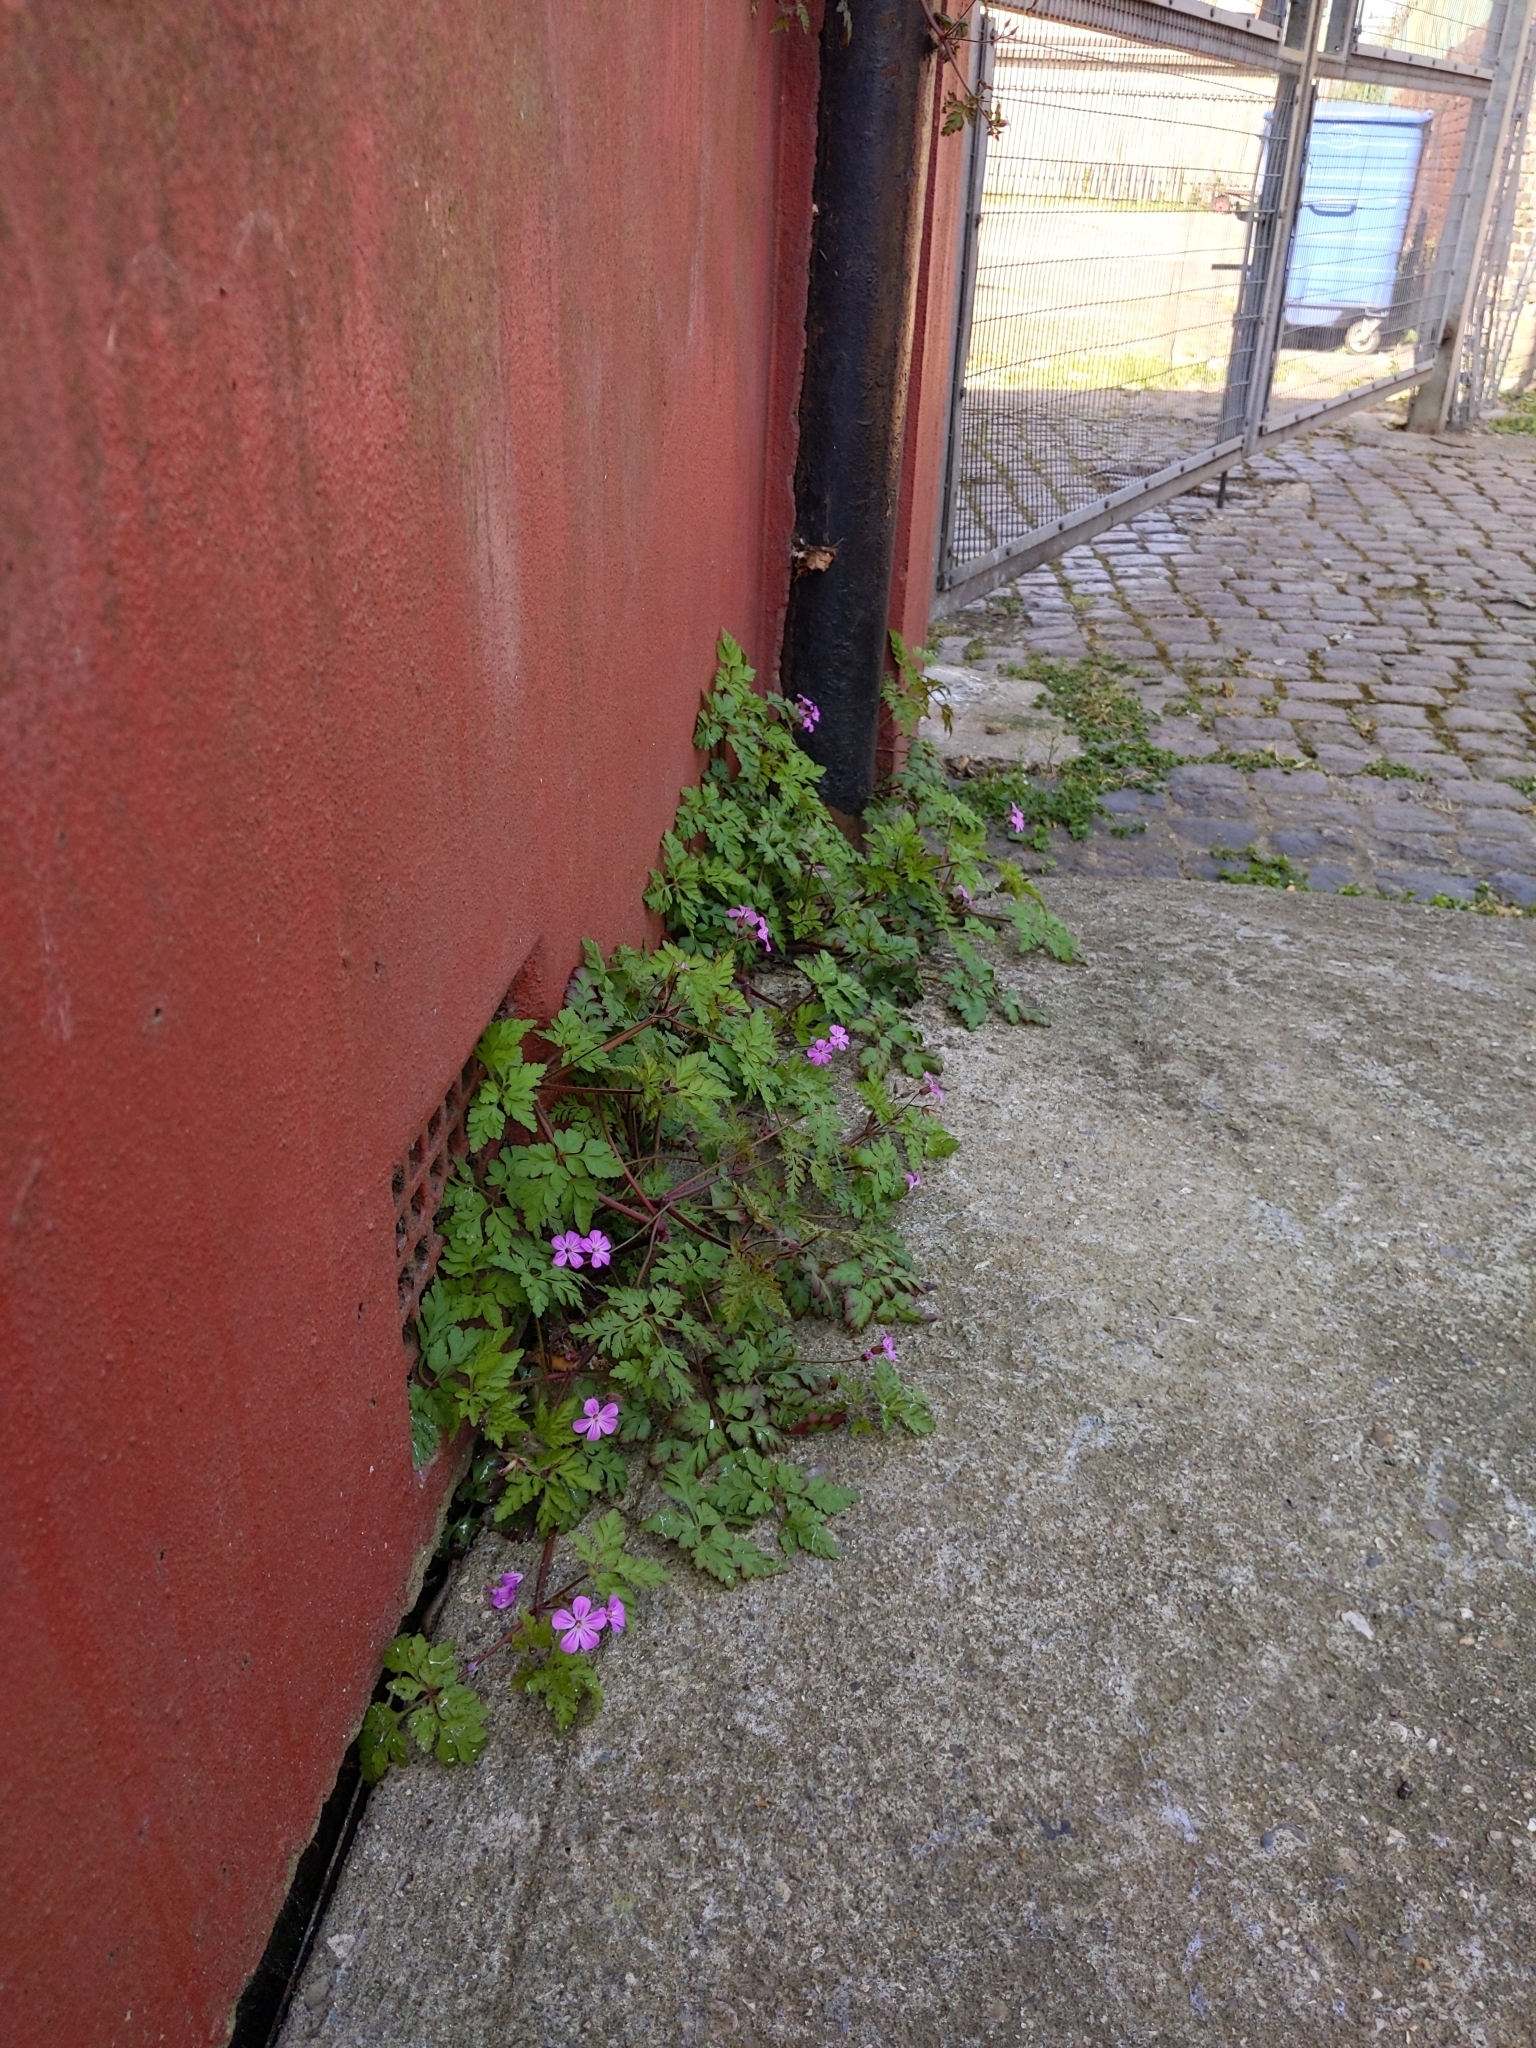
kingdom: Plantae
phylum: Tracheophyta
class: Magnoliopsida
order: Geraniales
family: Geraniaceae
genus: Geranium
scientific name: Geranium robertianum
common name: Herb-robert
